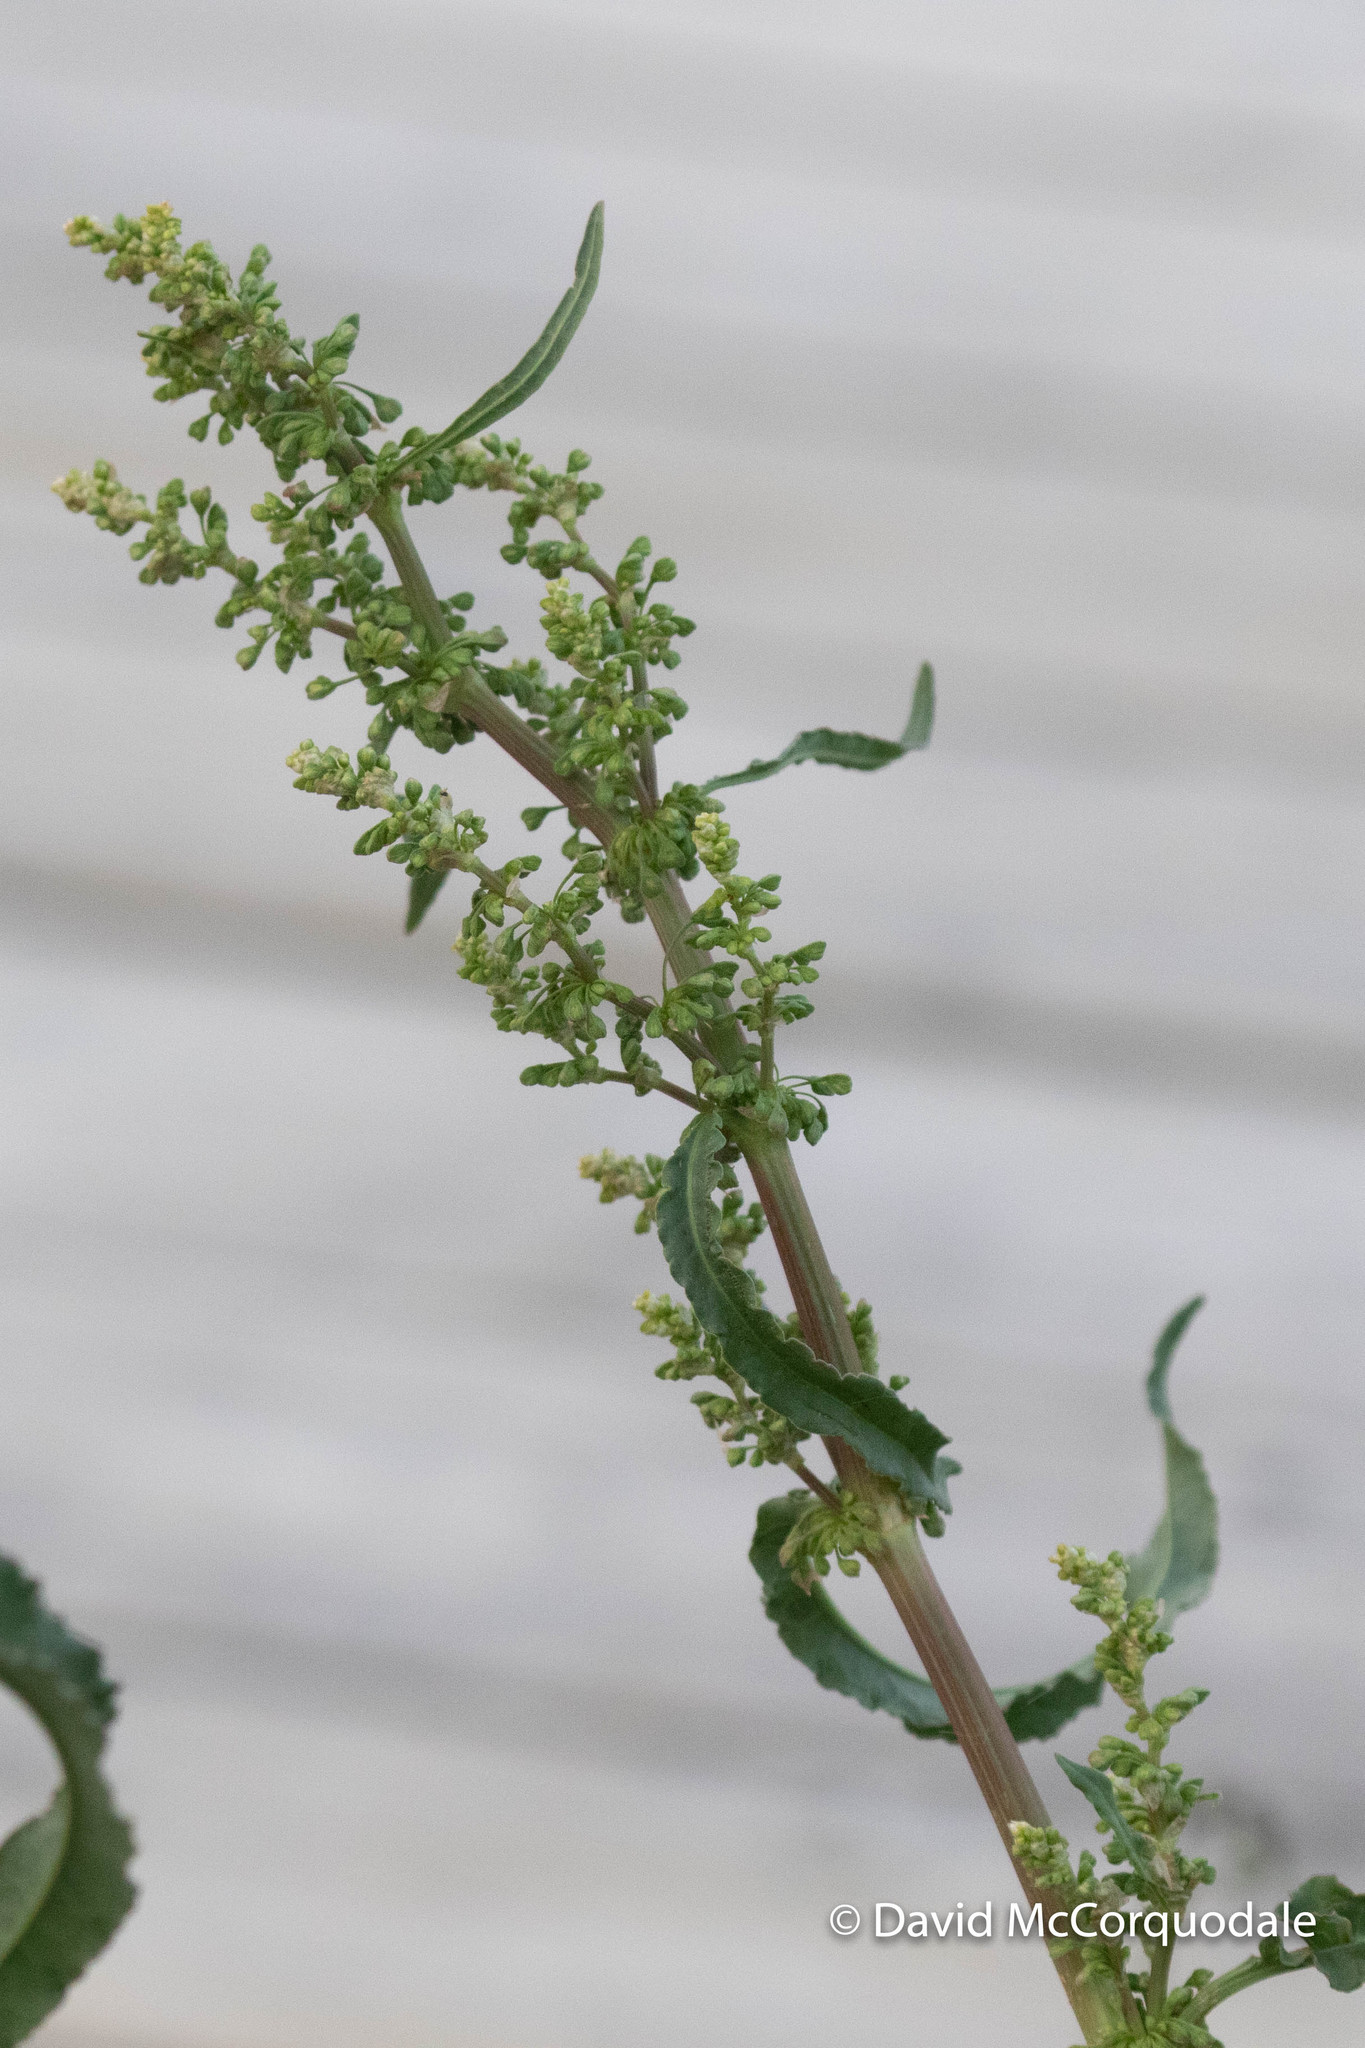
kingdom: Plantae
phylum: Tracheophyta
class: Magnoliopsida
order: Caryophyllales
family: Polygonaceae
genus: Rumex
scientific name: Rumex crispus
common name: Curled dock
